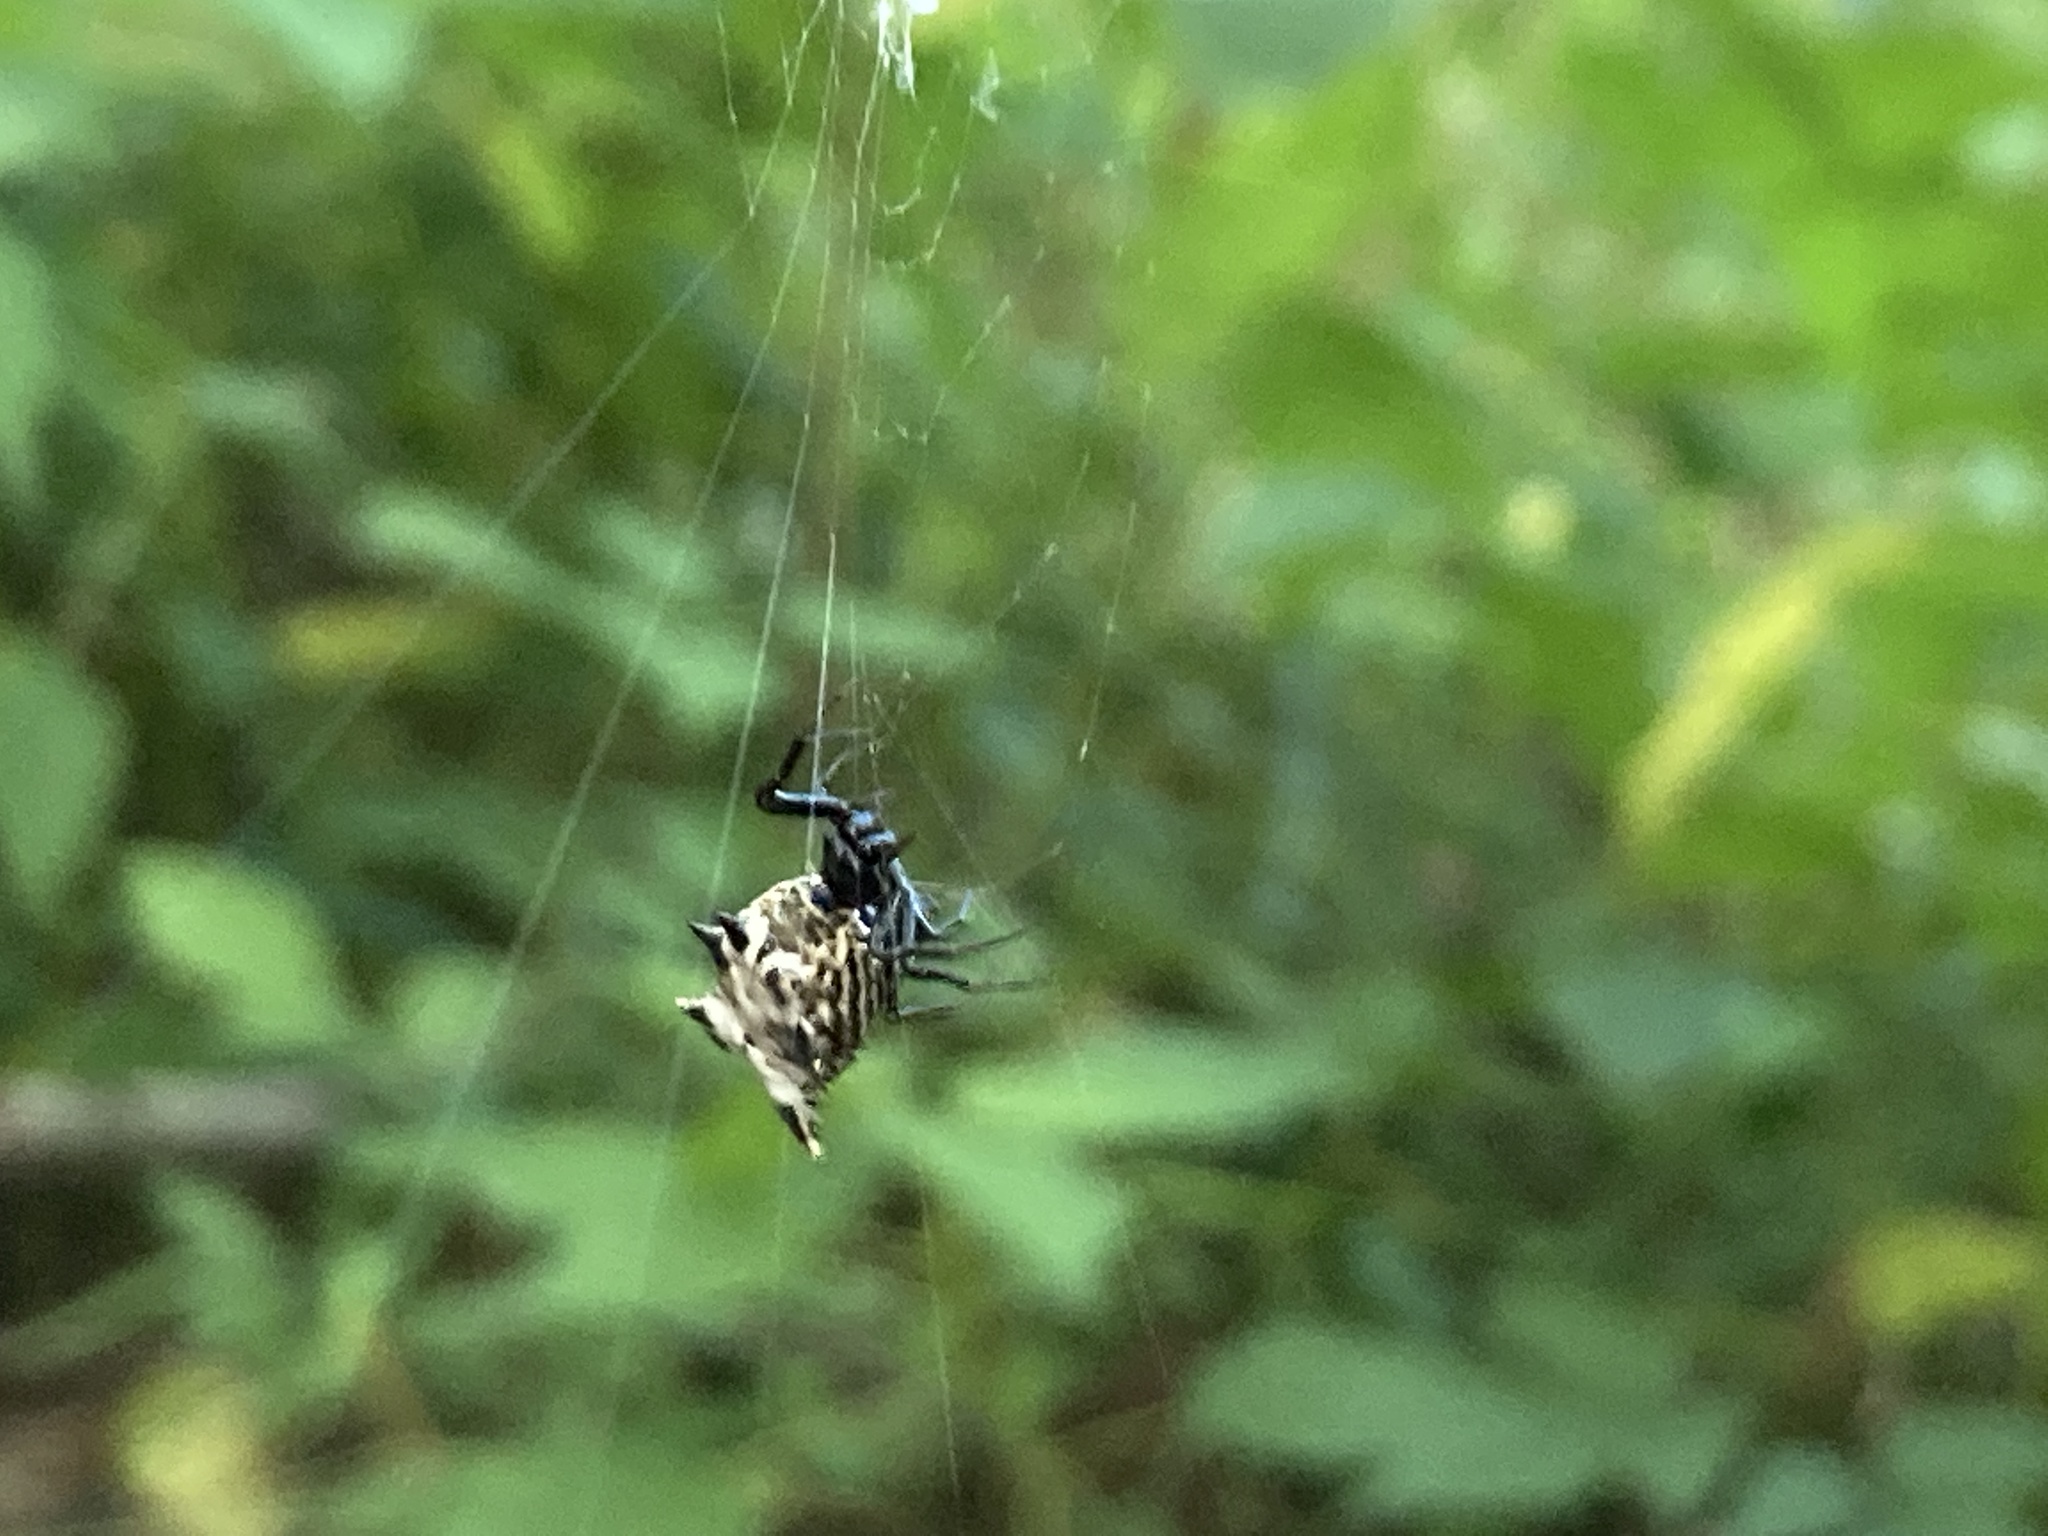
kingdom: Animalia
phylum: Arthropoda
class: Arachnida
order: Araneae
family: Araneidae
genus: Micrathena
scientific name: Micrathena gracilis
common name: Orb weavers
